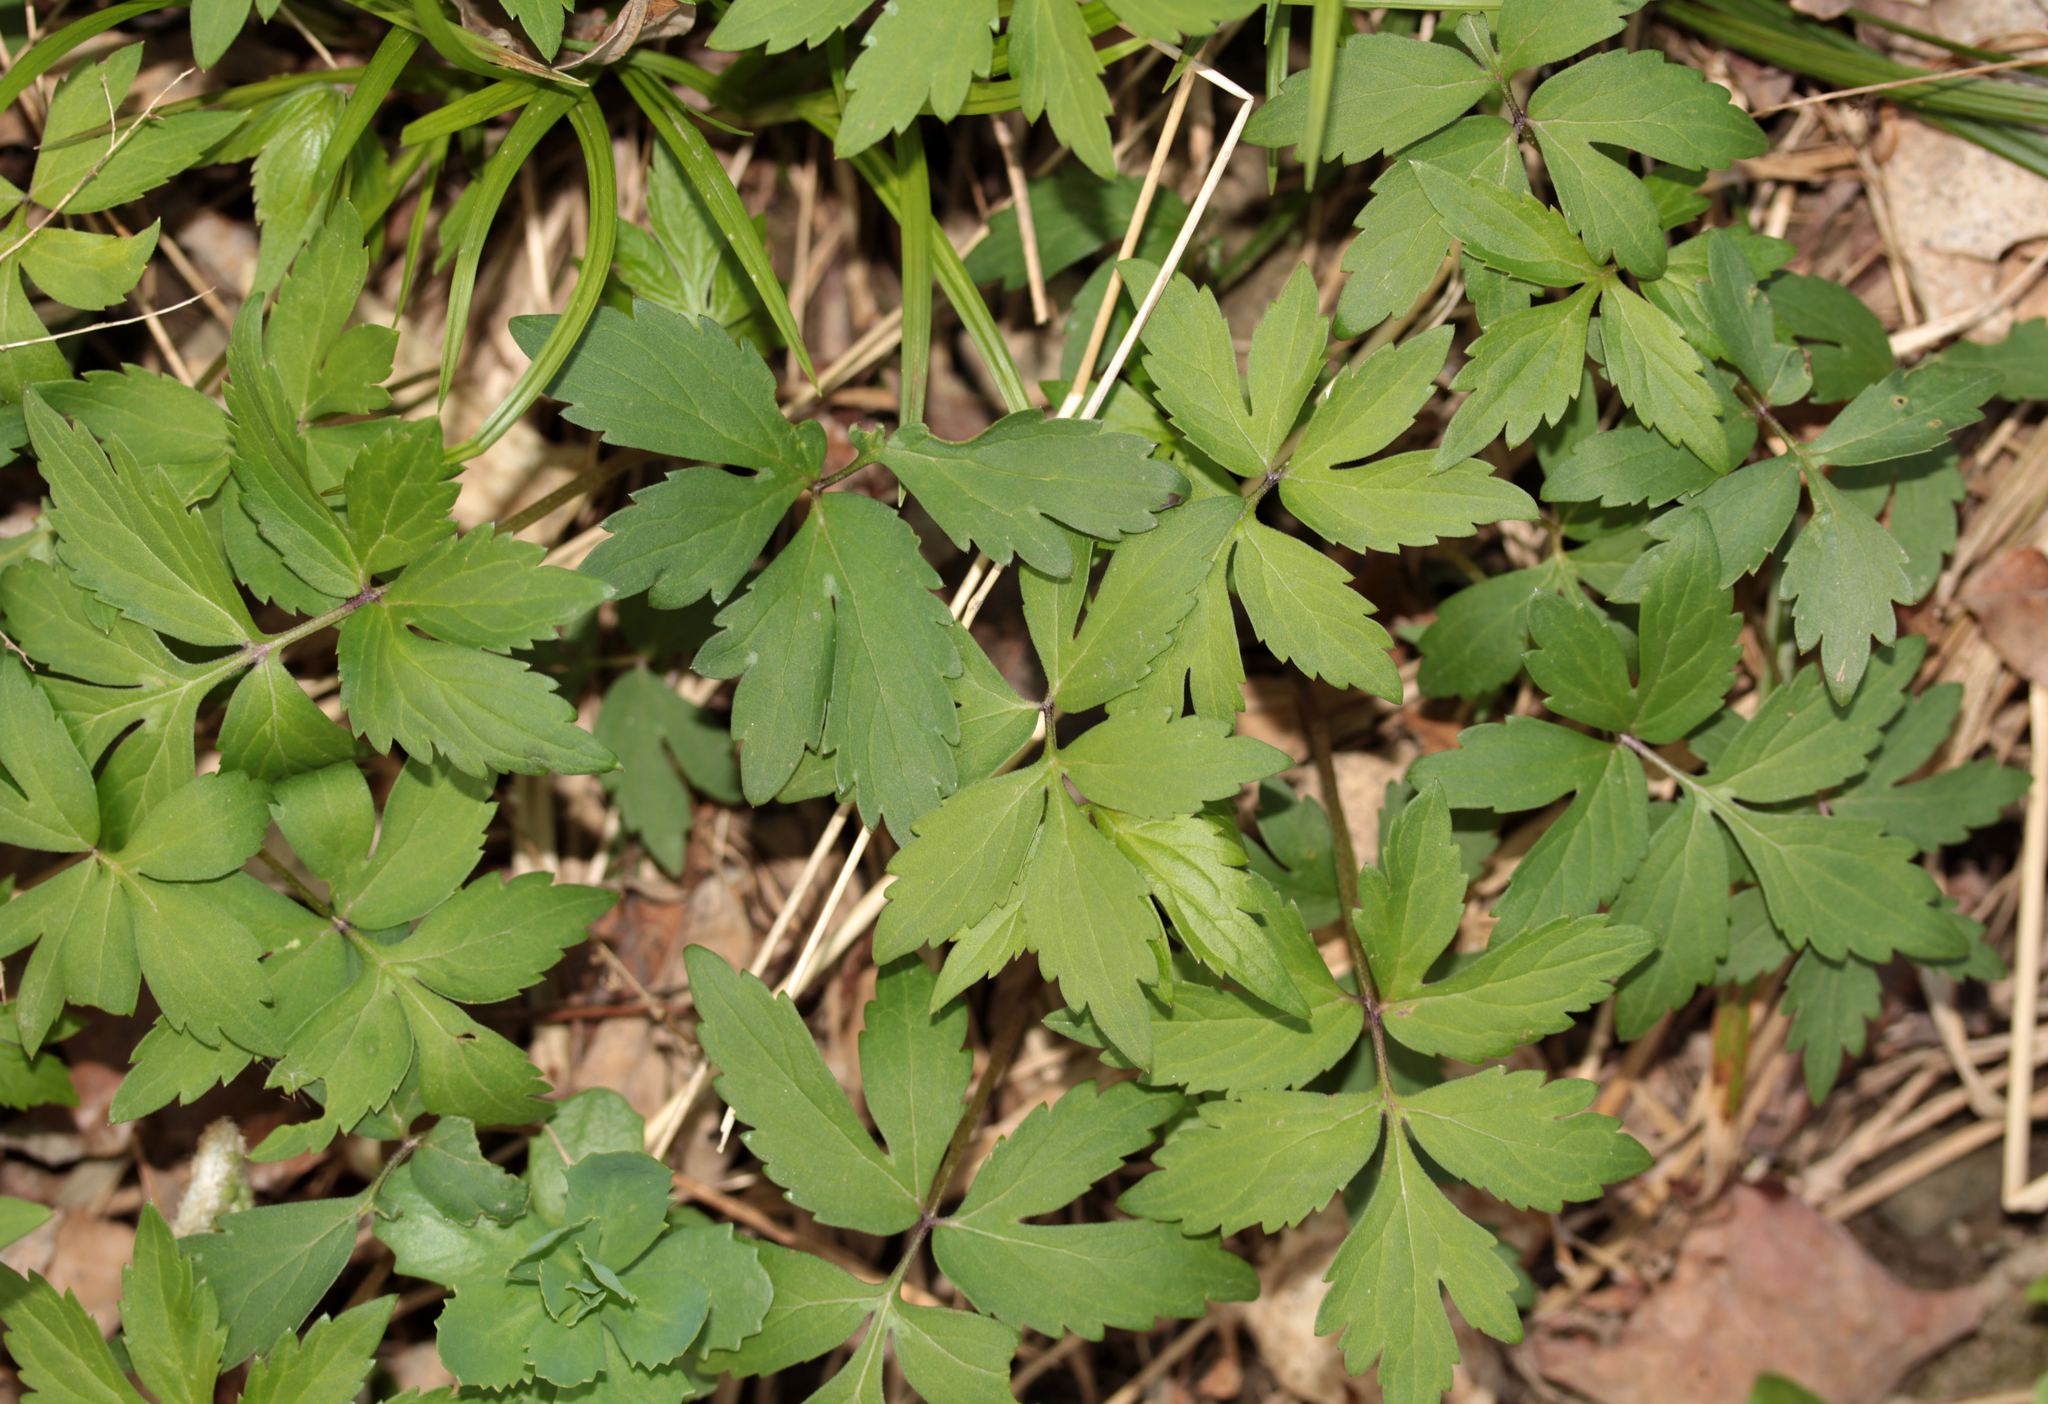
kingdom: Plantae
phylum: Tracheophyta
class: Magnoliopsida
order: Boraginales
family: Hydrophyllaceae
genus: Hydrophyllum
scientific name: Hydrophyllum virginianum
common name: Virginia waterleaf
